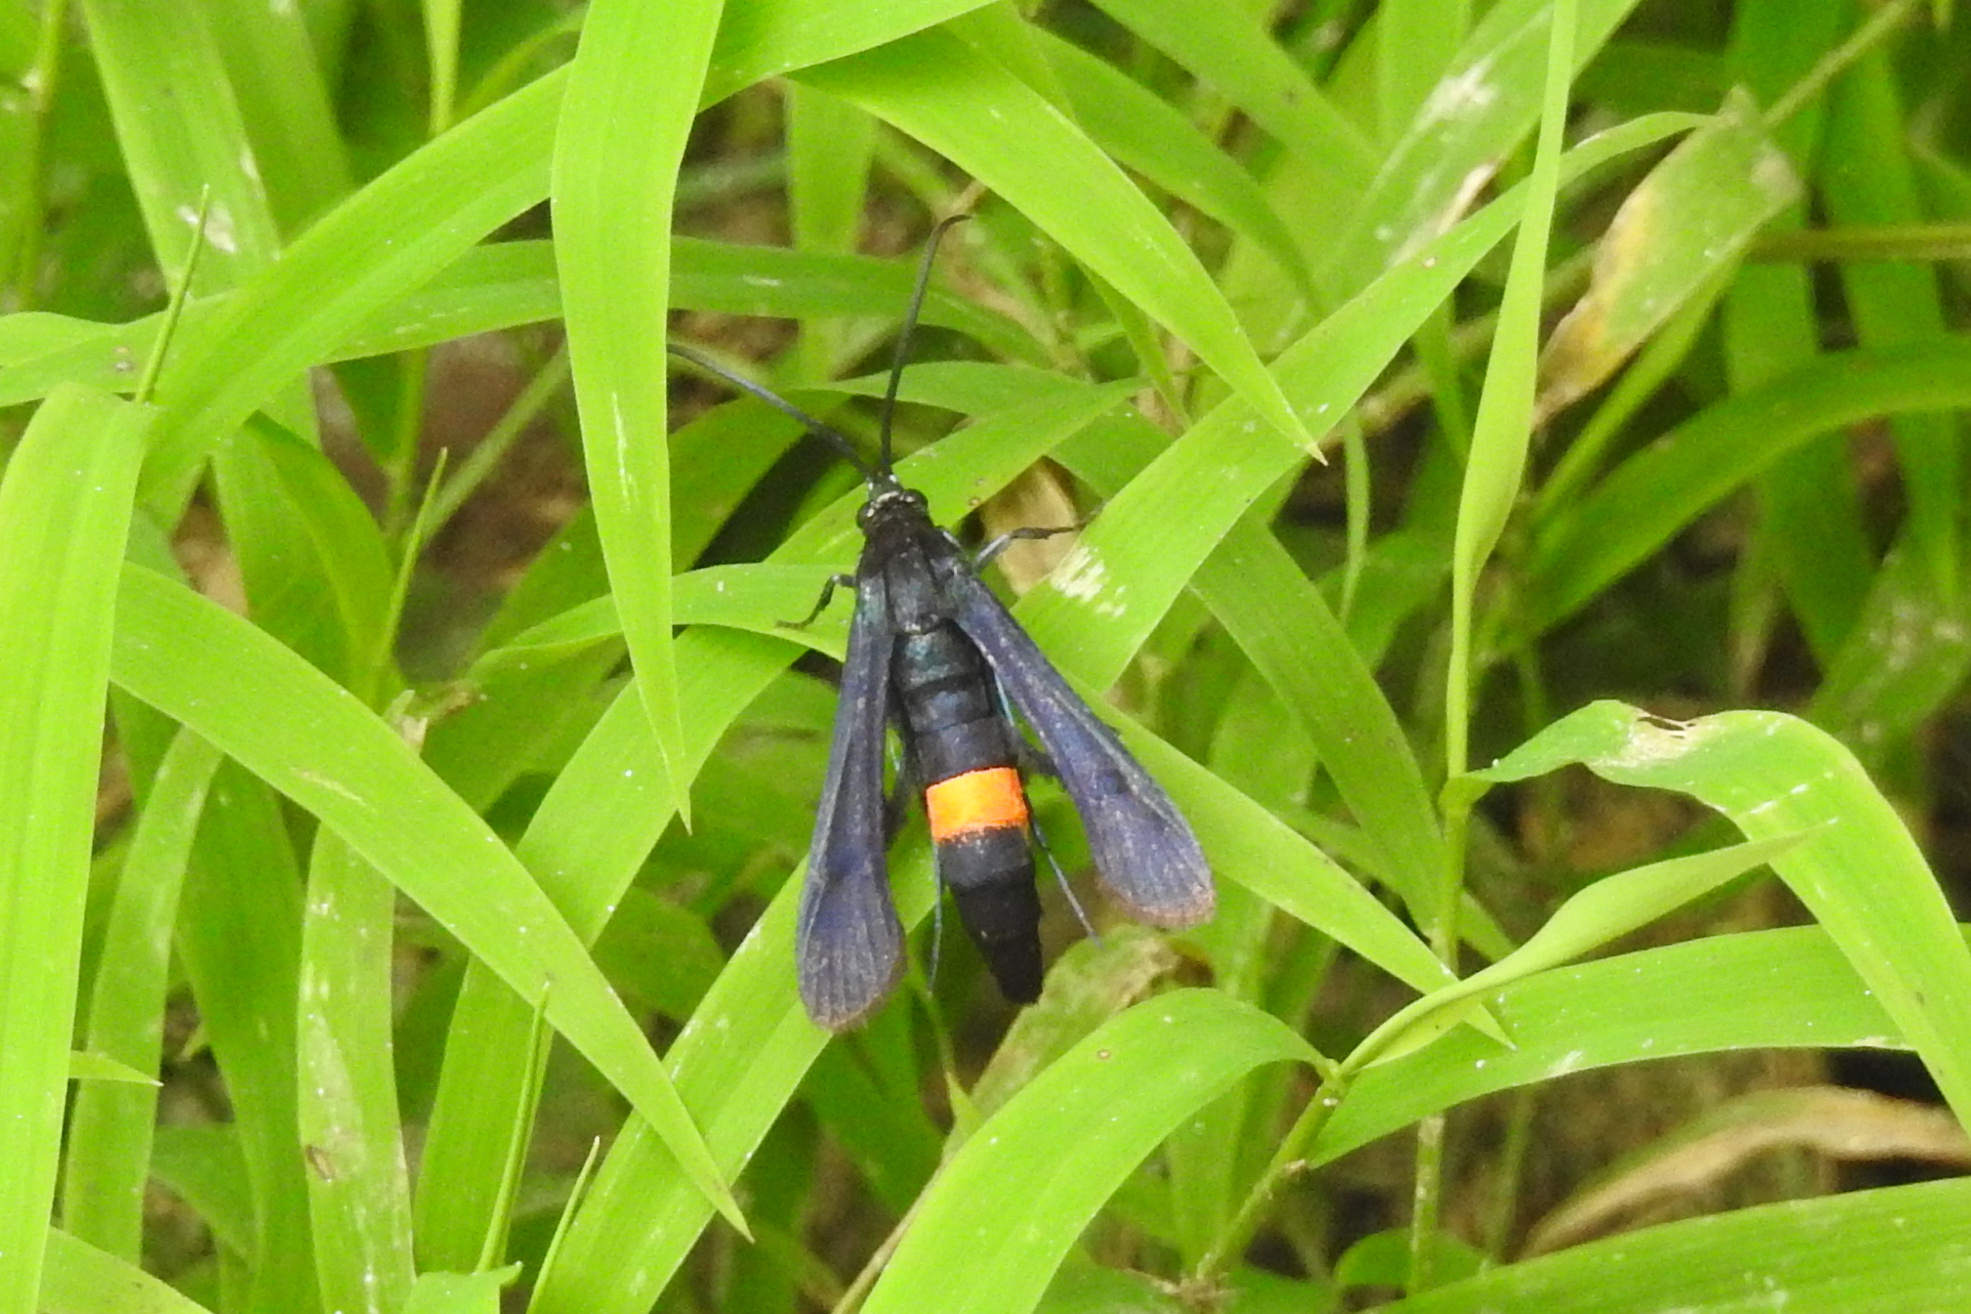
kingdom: Animalia
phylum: Arthropoda
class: Insecta
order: Lepidoptera
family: Sesiidae
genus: Synanthedon
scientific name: Synanthedon exitiosa
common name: Peachtree borer moth
